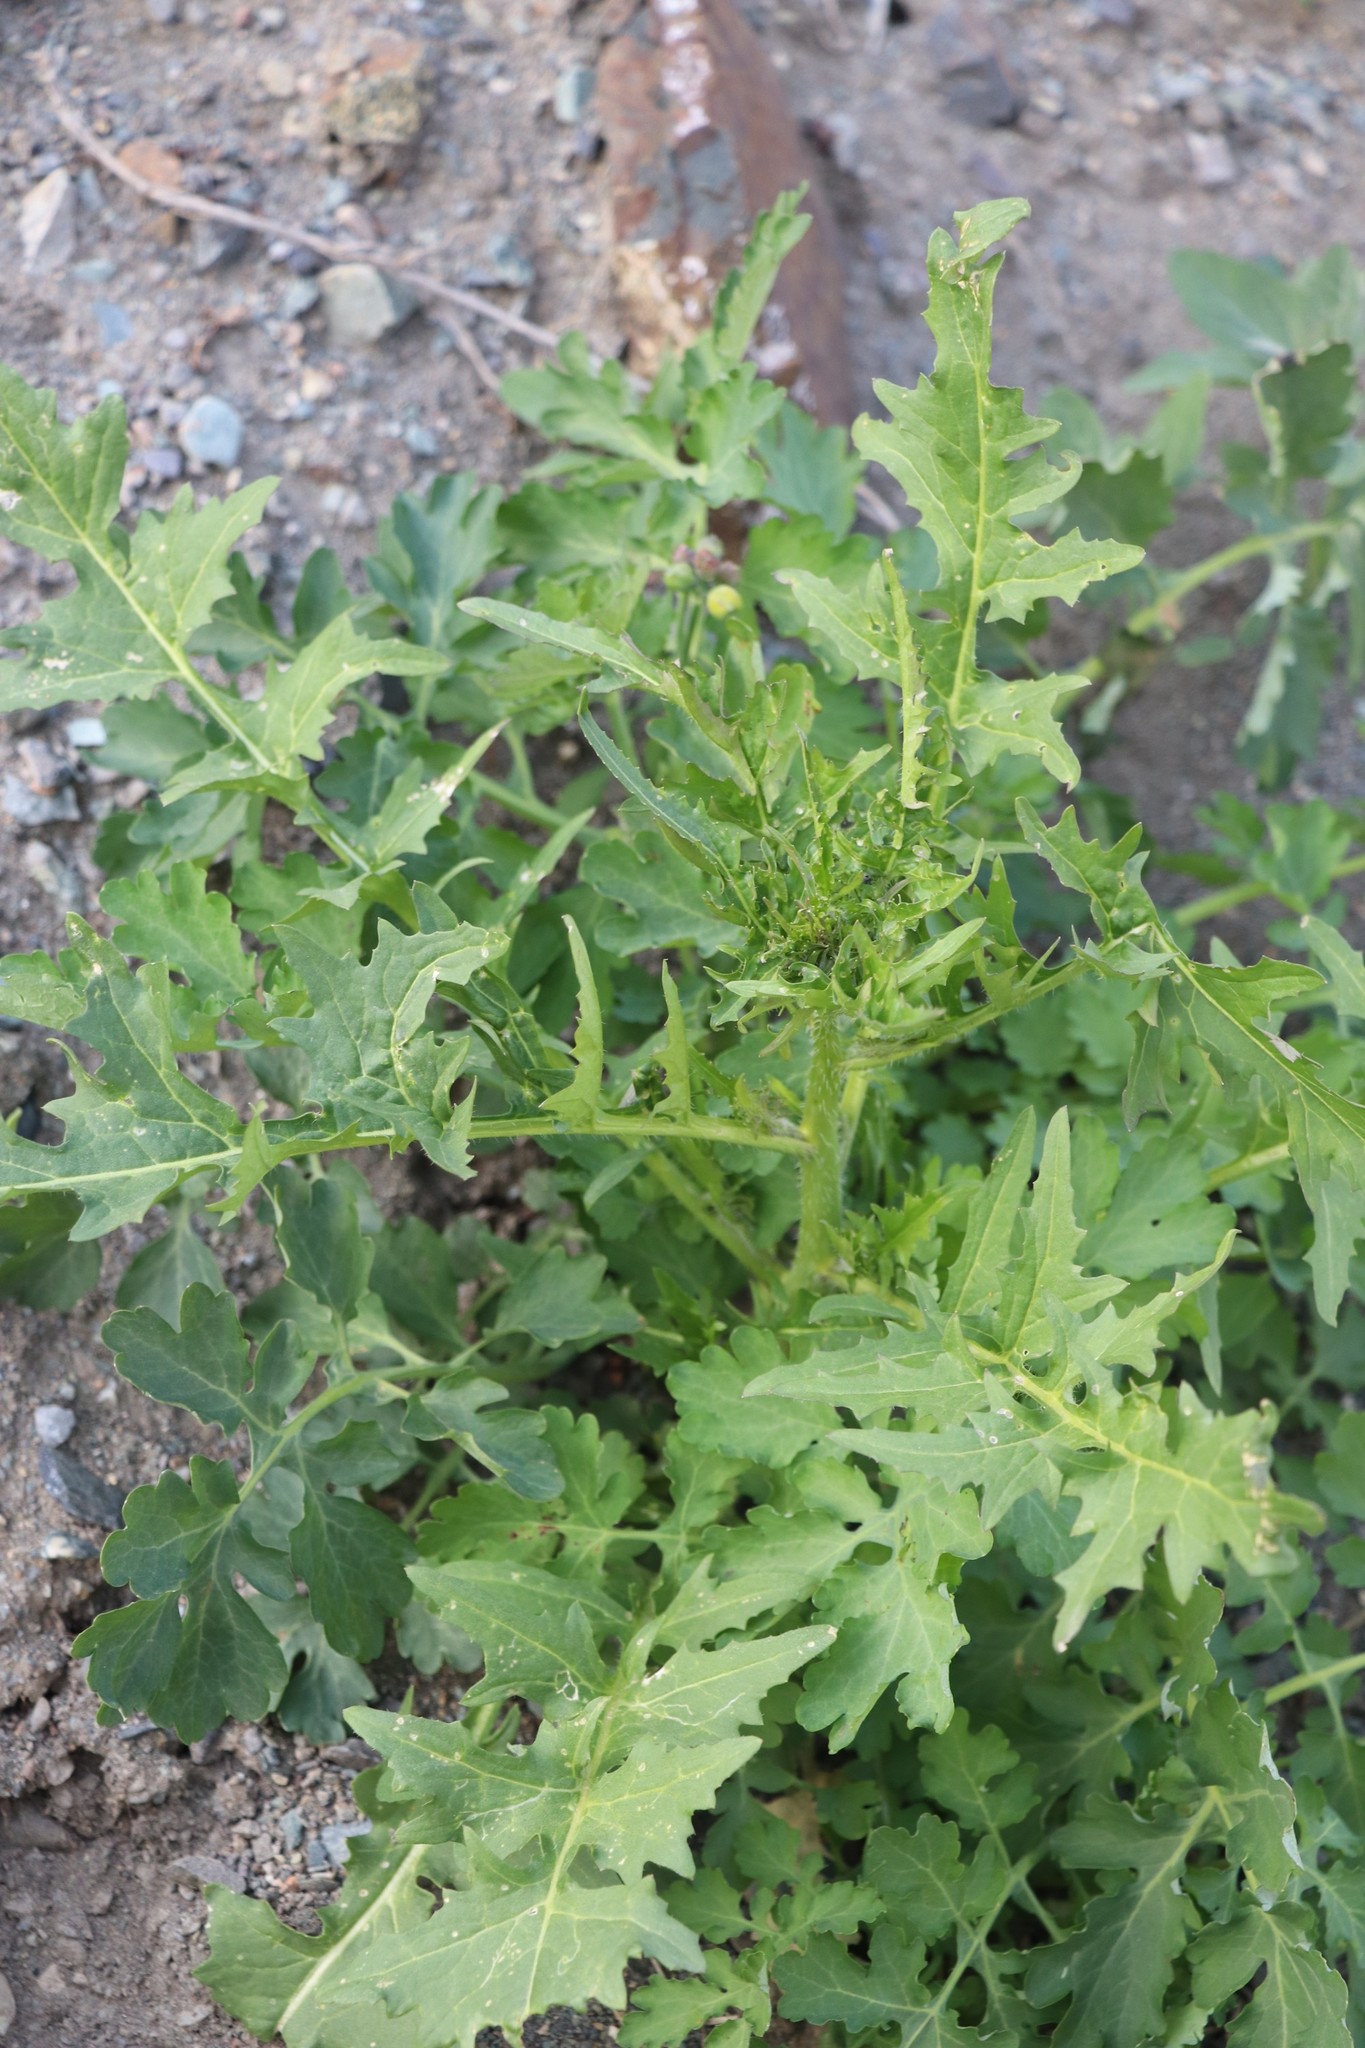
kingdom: Plantae
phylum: Tracheophyta
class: Magnoliopsida
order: Brassicales
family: Brassicaceae
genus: Sisymbrium
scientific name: Sisymbrium loeselii
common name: False london-rocket
